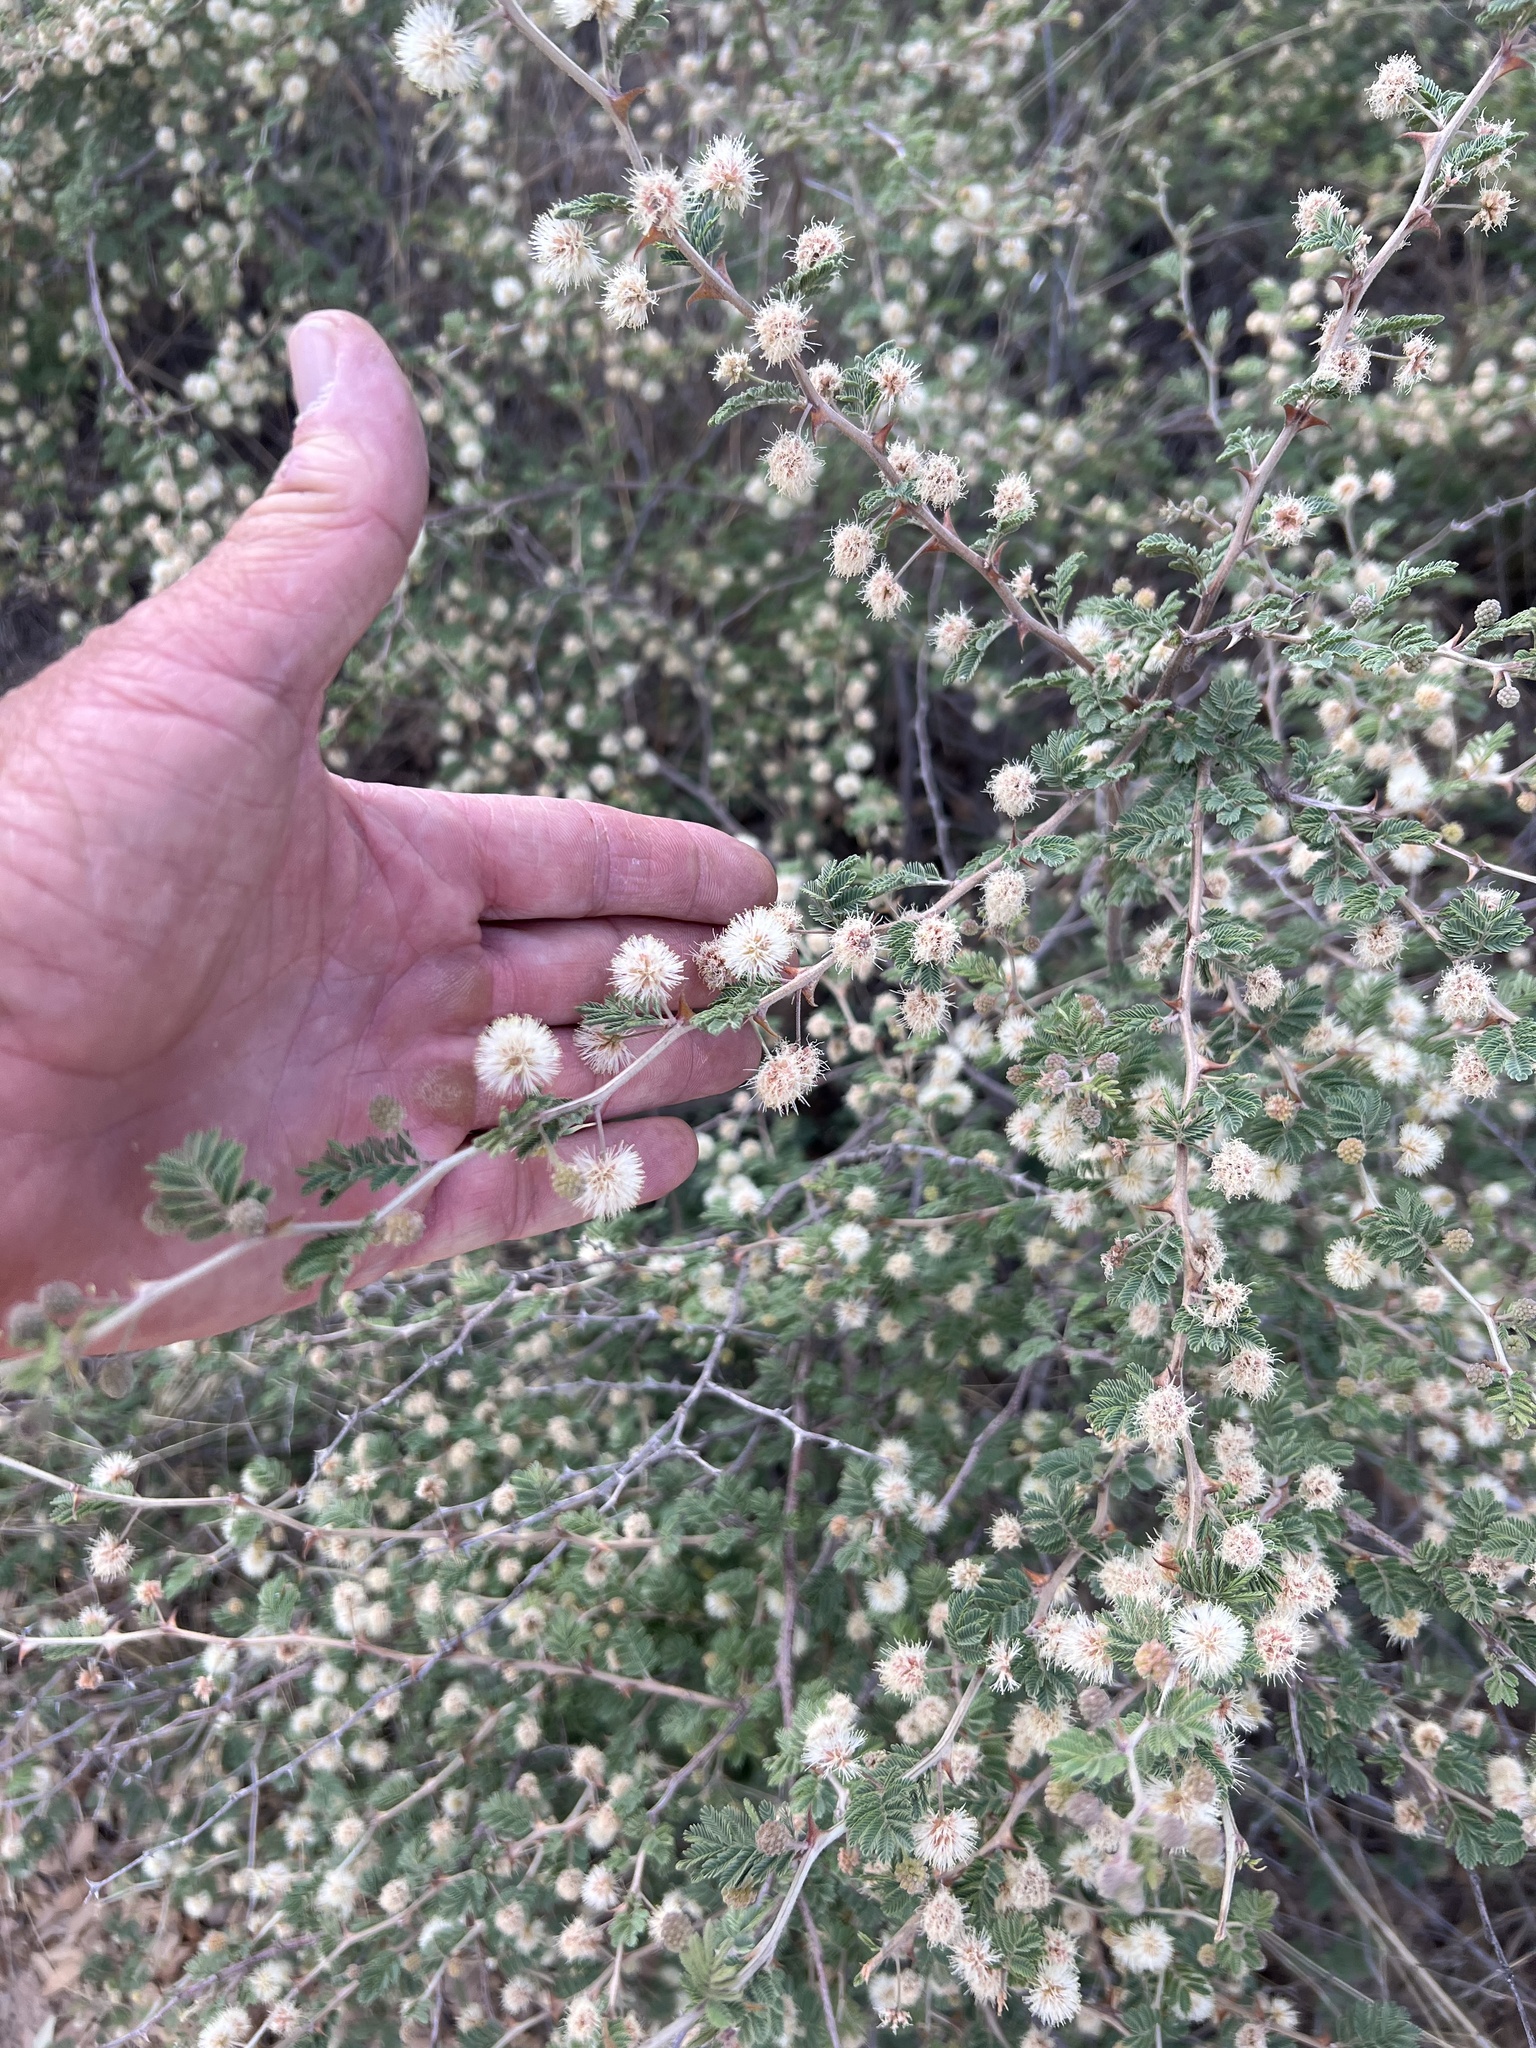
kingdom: Plantae
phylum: Tracheophyta
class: Magnoliopsida
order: Fabales
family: Fabaceae
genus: Mimosa
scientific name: Mimosa aculeaticarpa
